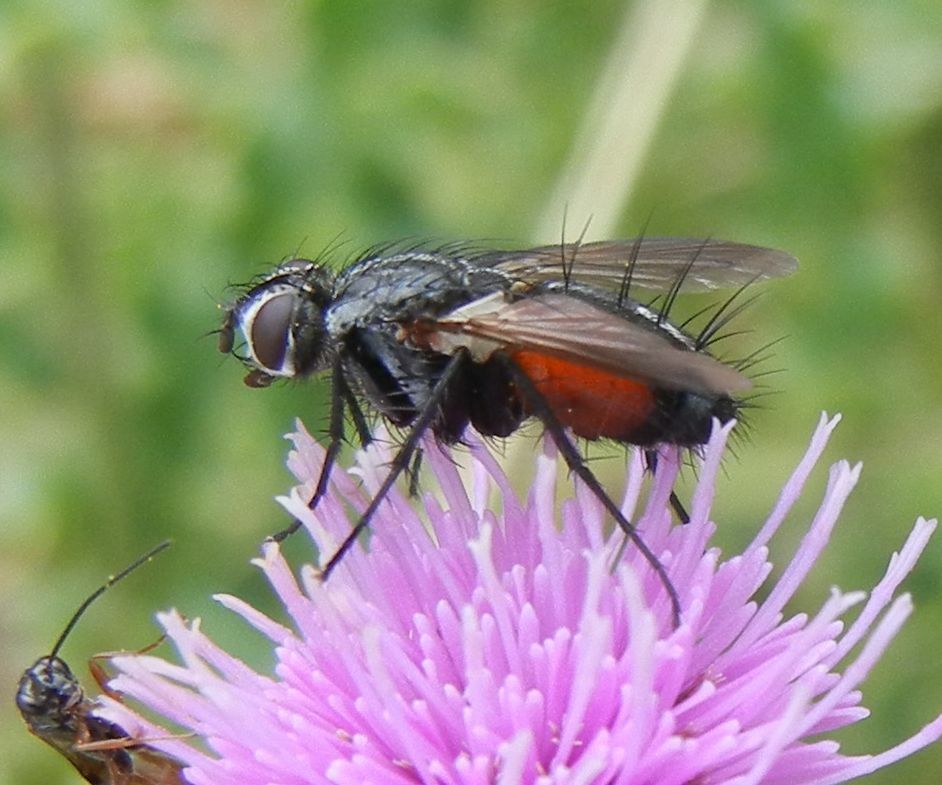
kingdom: Animalia
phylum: Arthropoda
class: Insecta
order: Diptera
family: Tachinidae
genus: Eriothrix
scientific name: Eriothrix rufomaculatus
